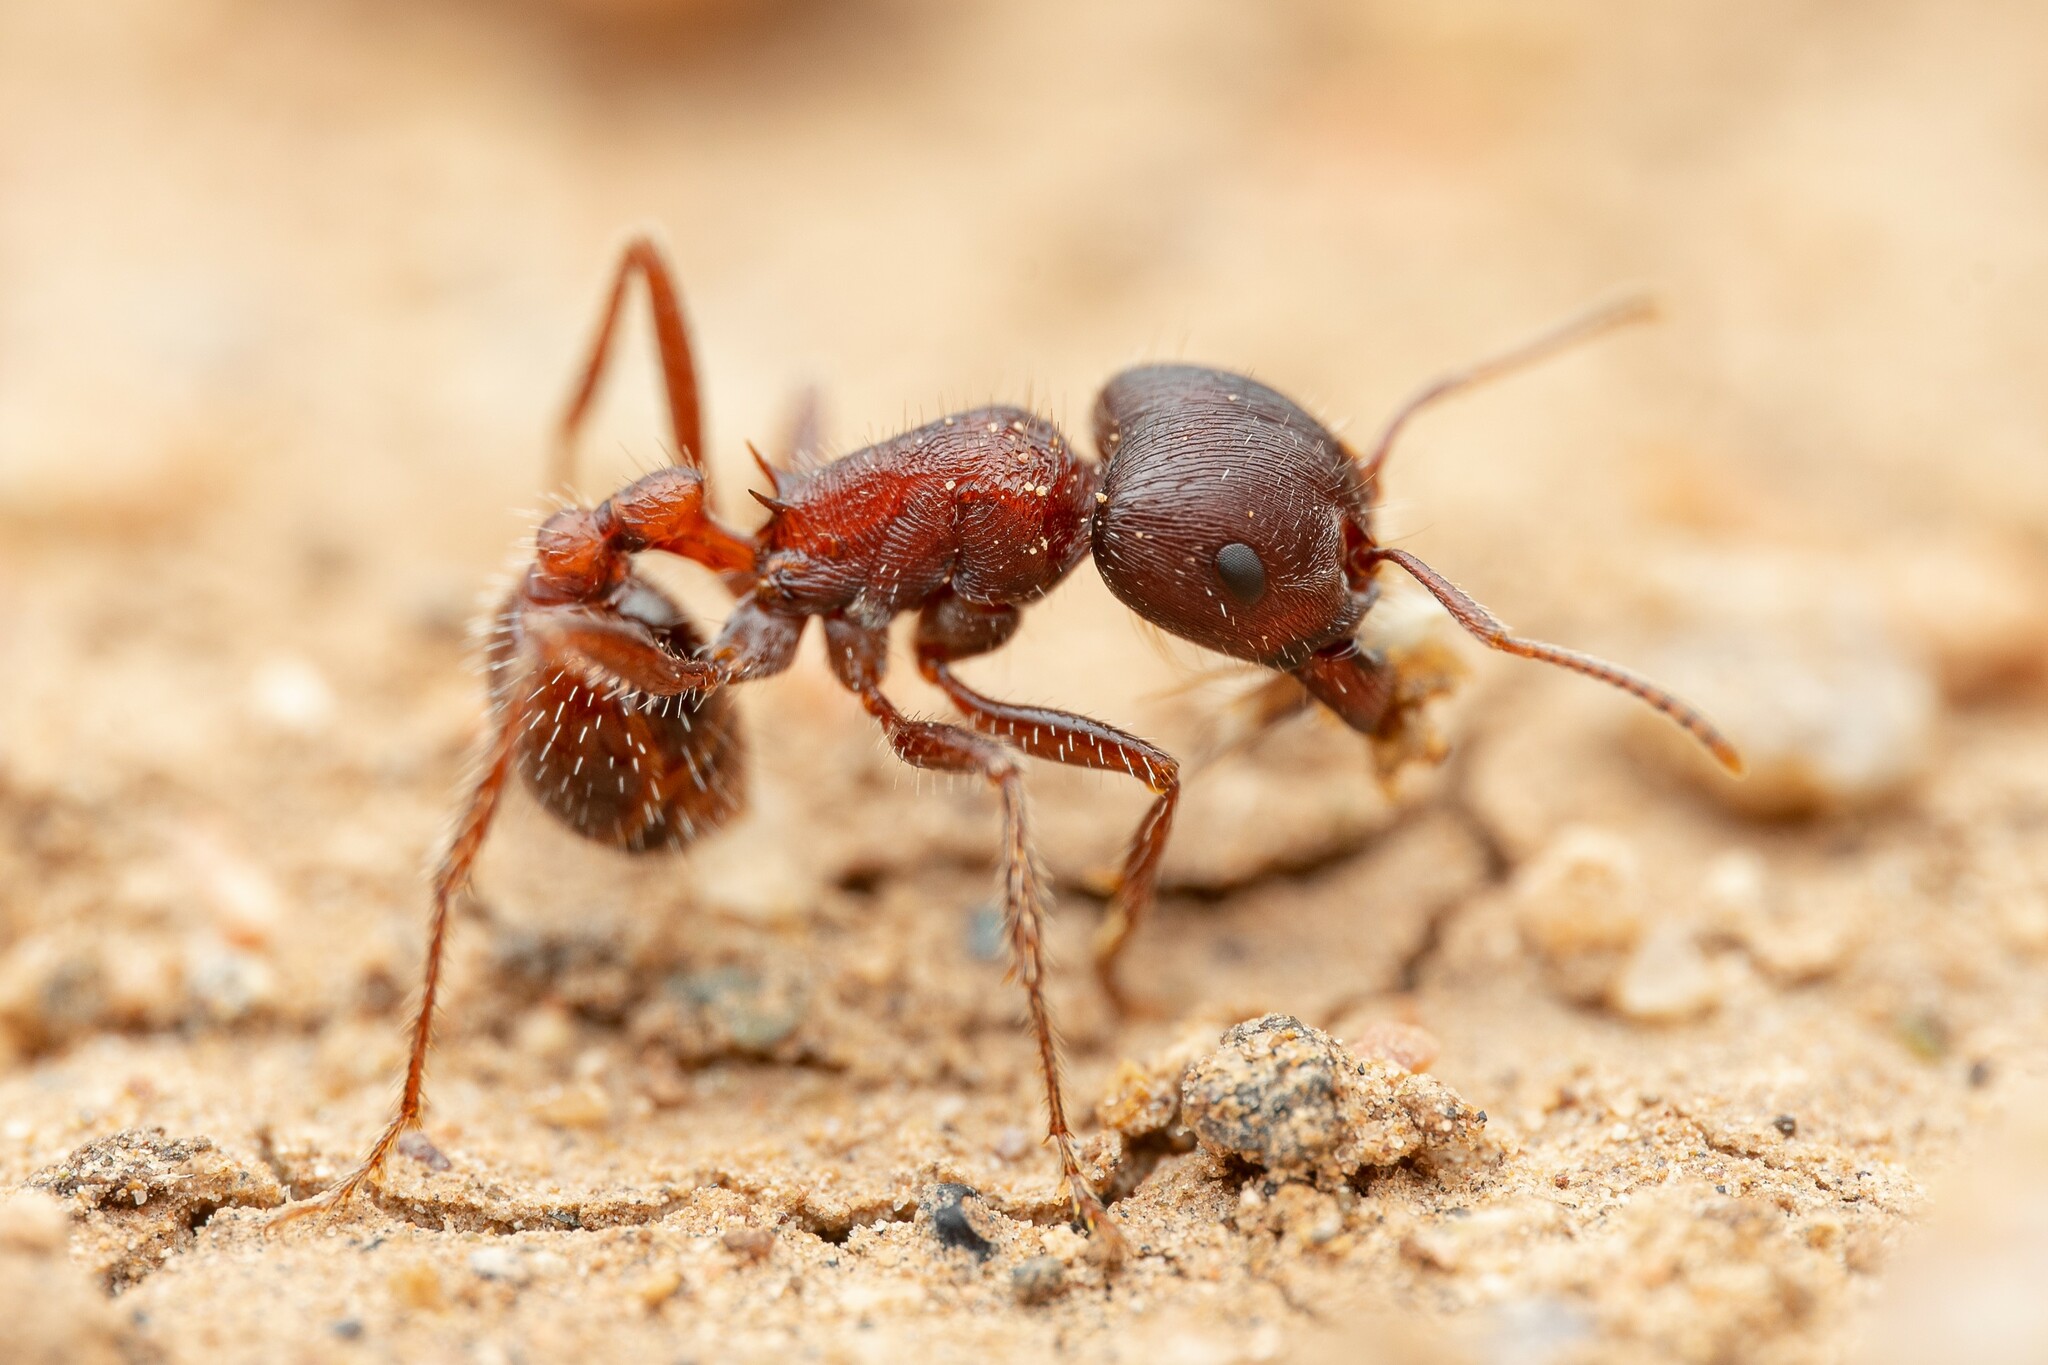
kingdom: Animalia
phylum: Arthropoda
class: Insecta
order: Hymenoptera
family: Formicidae
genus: Pogonomyrmex
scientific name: Pogonomyrmex rugosus
